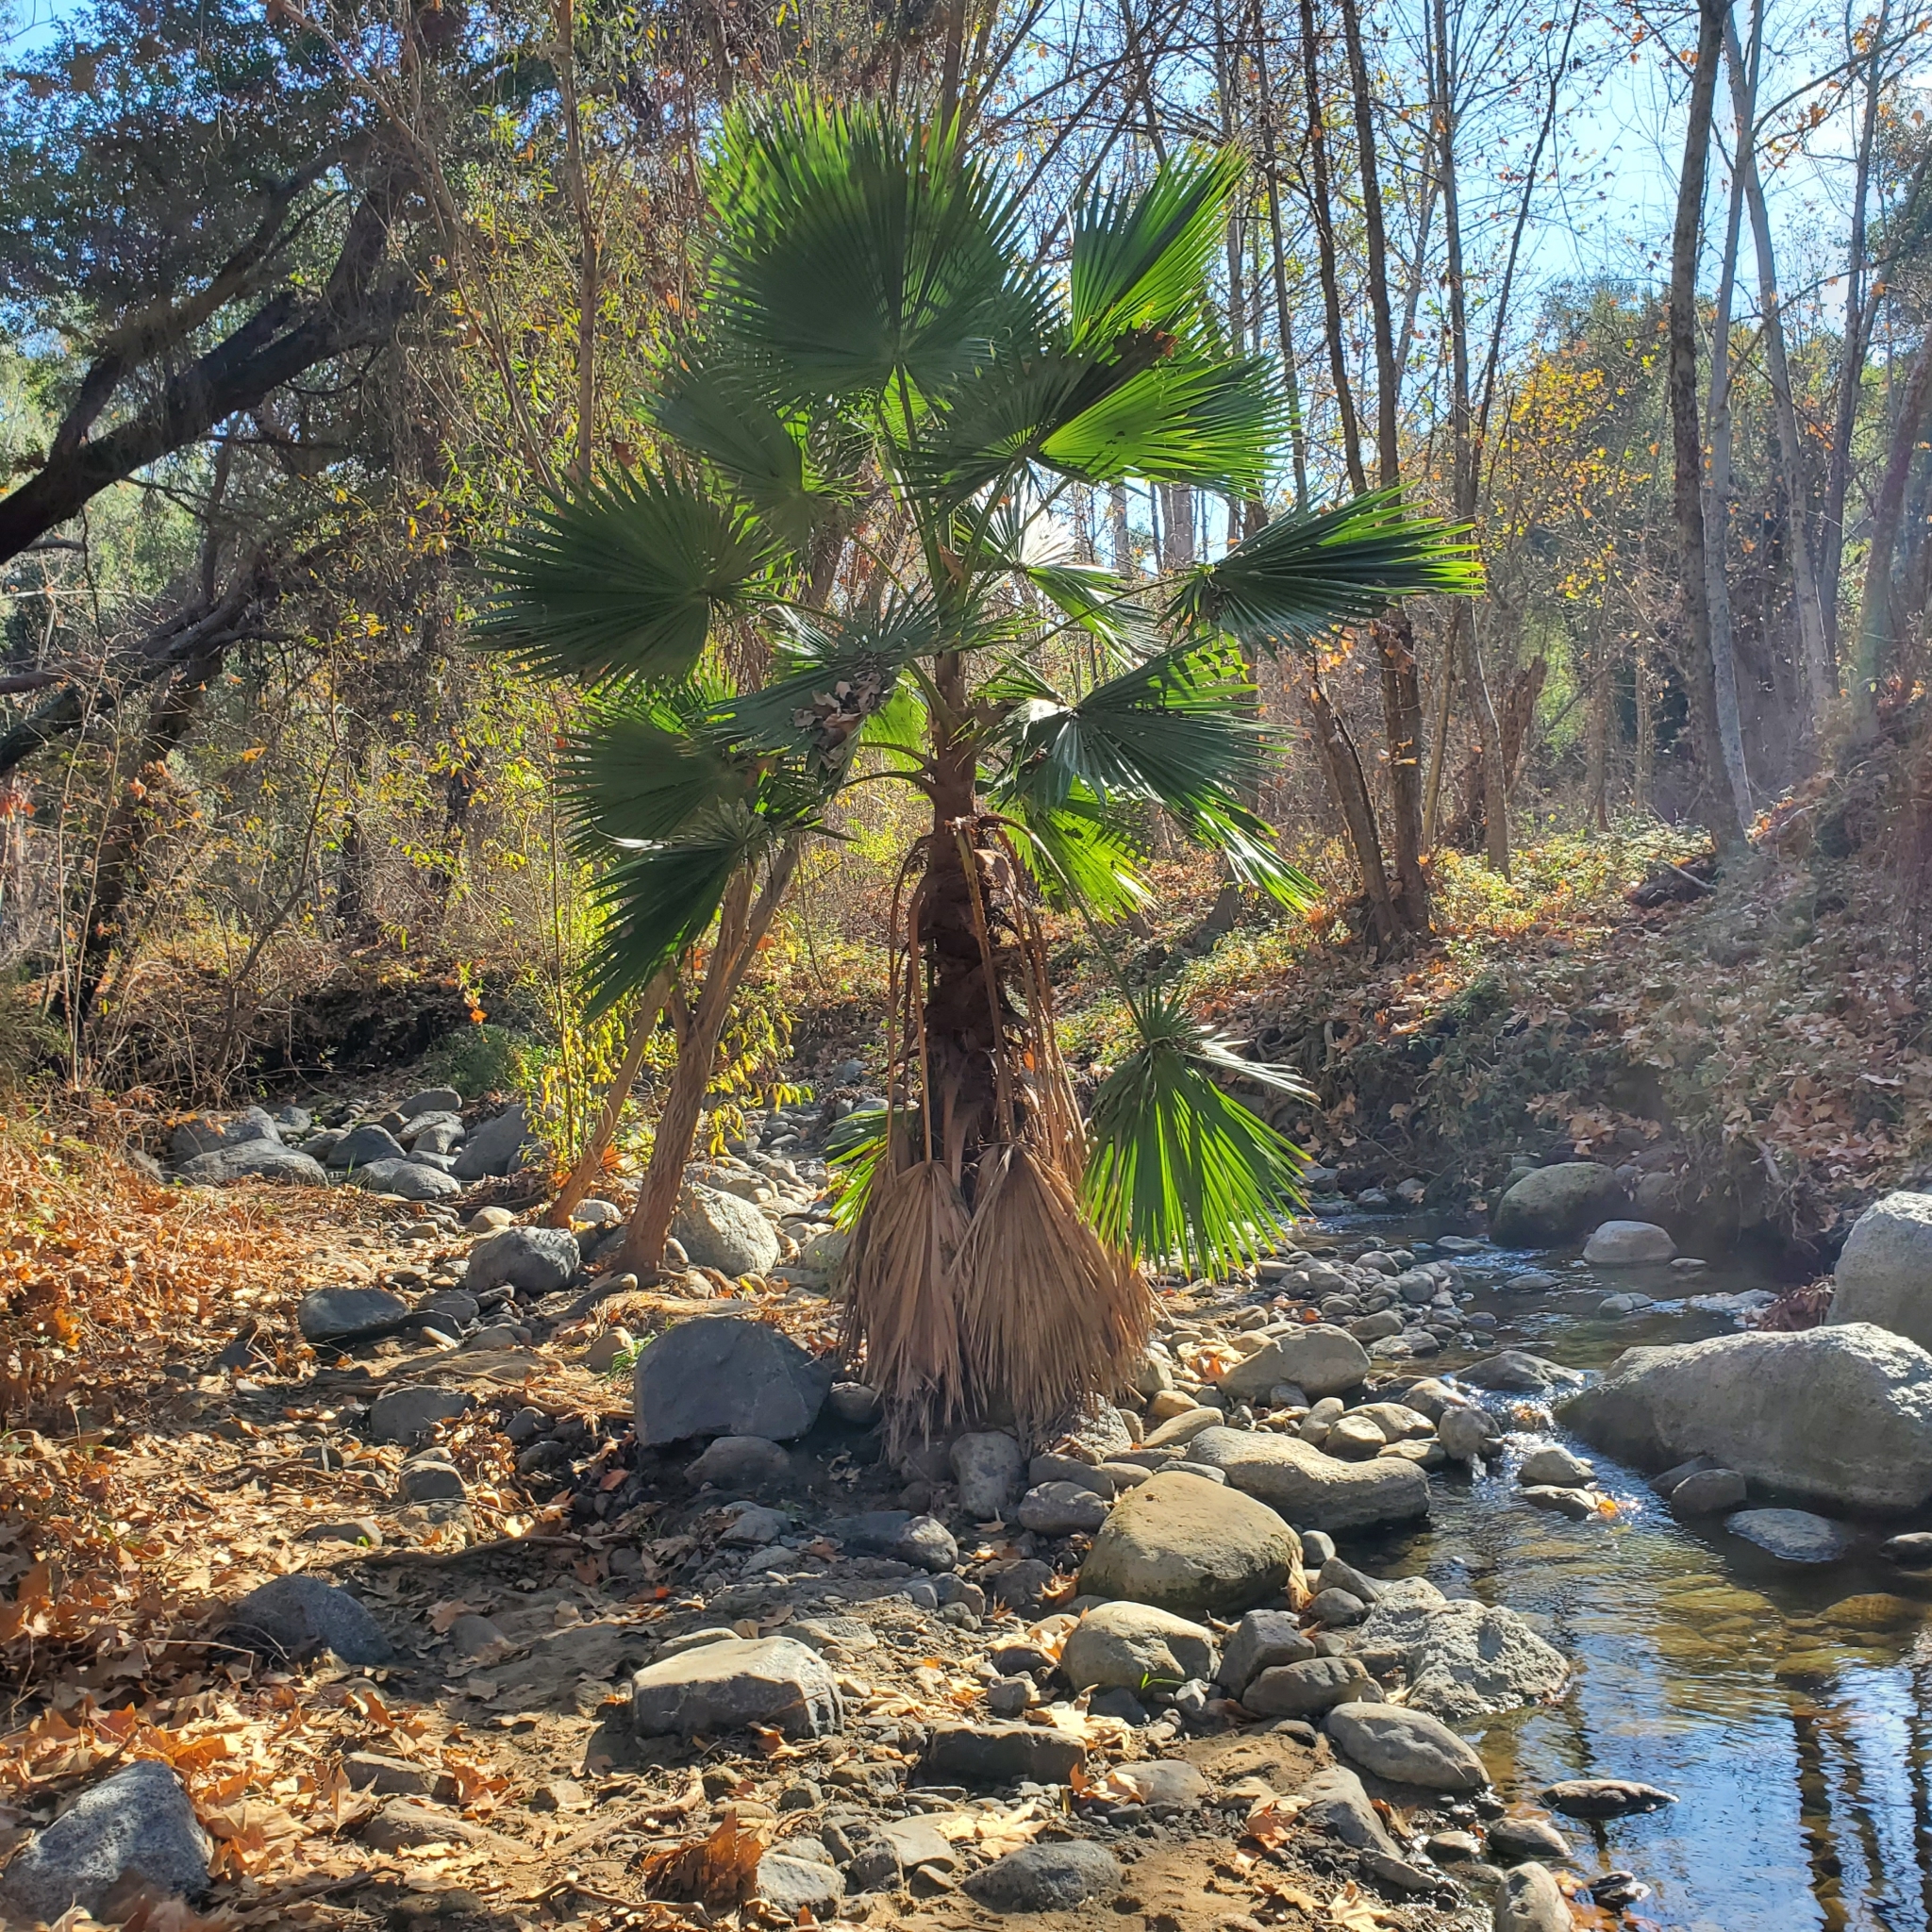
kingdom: Plantae
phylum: Tracheophyta
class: Liliopsida
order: Arecales
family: Arecaceae
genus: Washingtonia
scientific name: Washingtonia robusta
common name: Mexican fan palm
